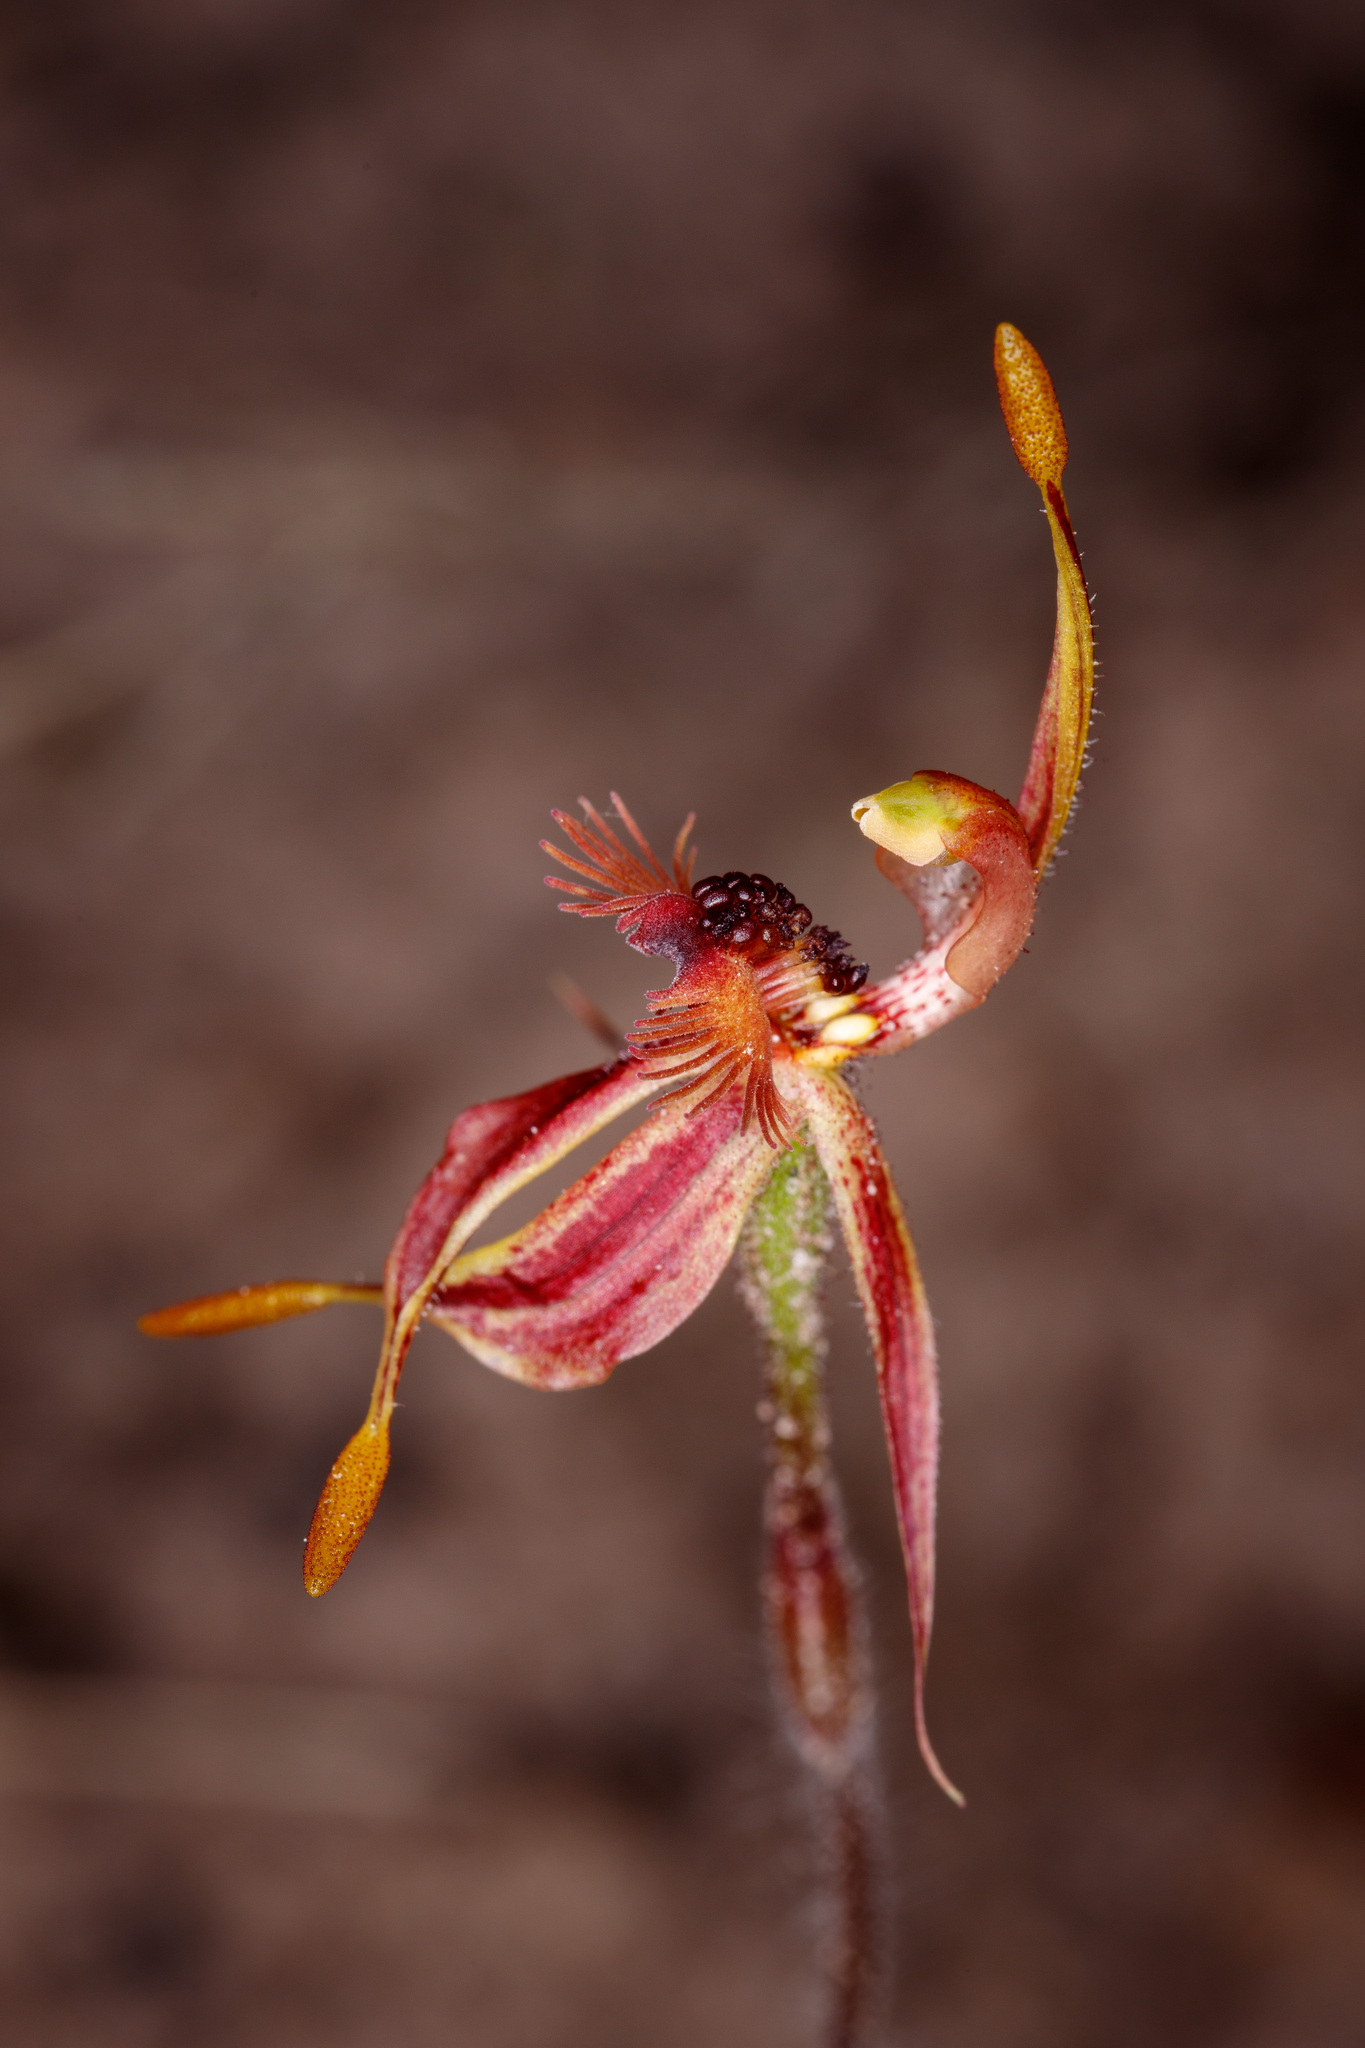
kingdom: Plantae
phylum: Tracheophyta
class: Liliopsida
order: Asparagales
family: Orchidaceae
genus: Caladenia
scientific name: Caladenia plicata
